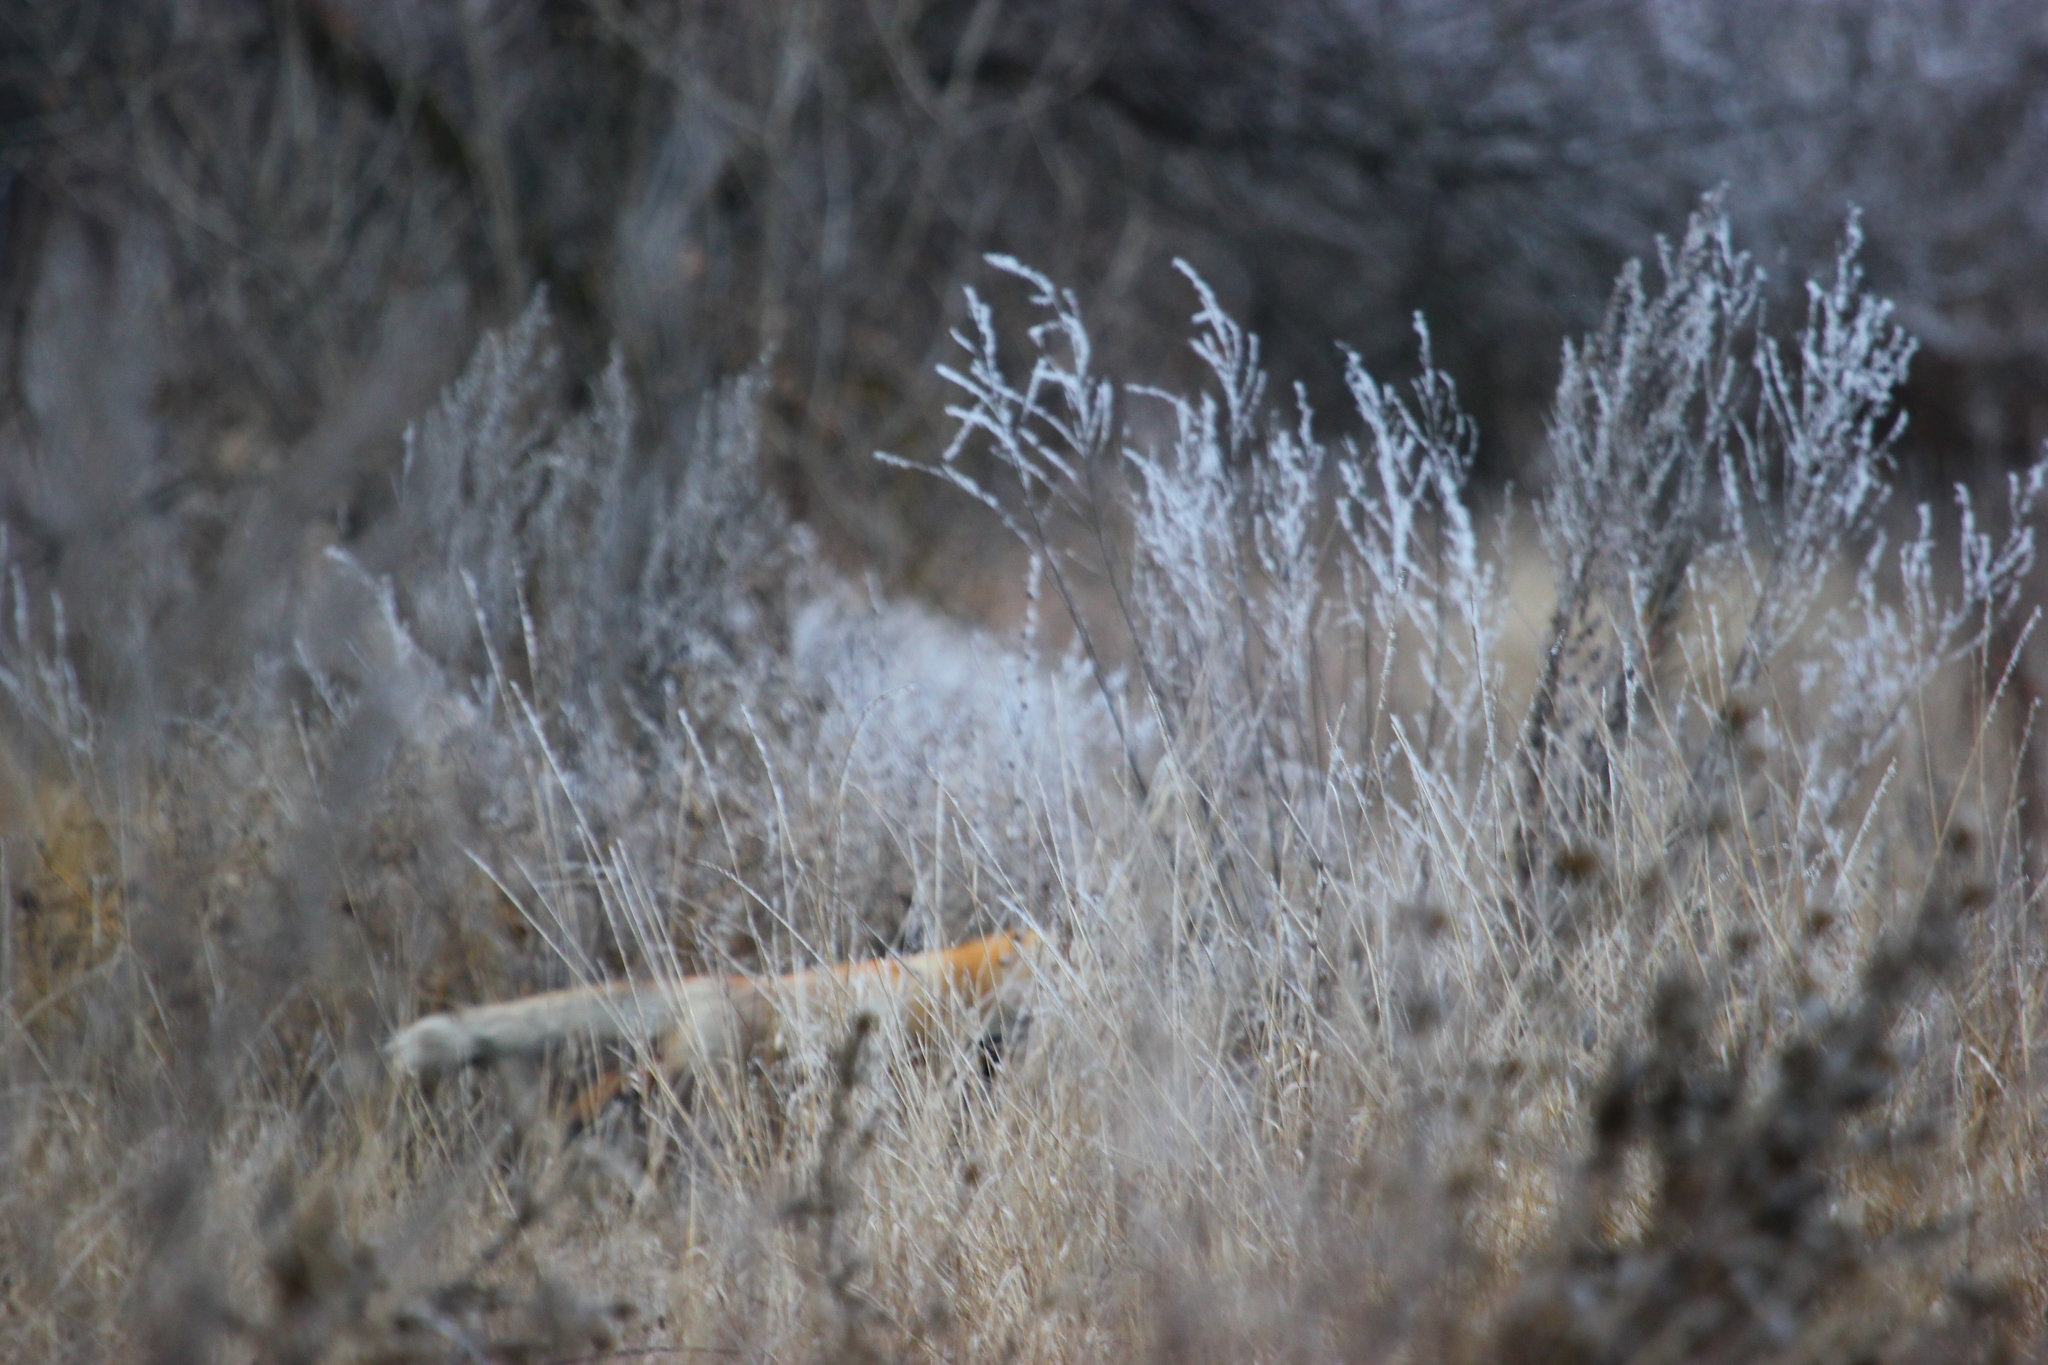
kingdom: Animalia
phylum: Chordata
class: Mammalia
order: Carnivora
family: Canidae
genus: Vulpes
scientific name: Vulpes vulpes
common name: Red fox
